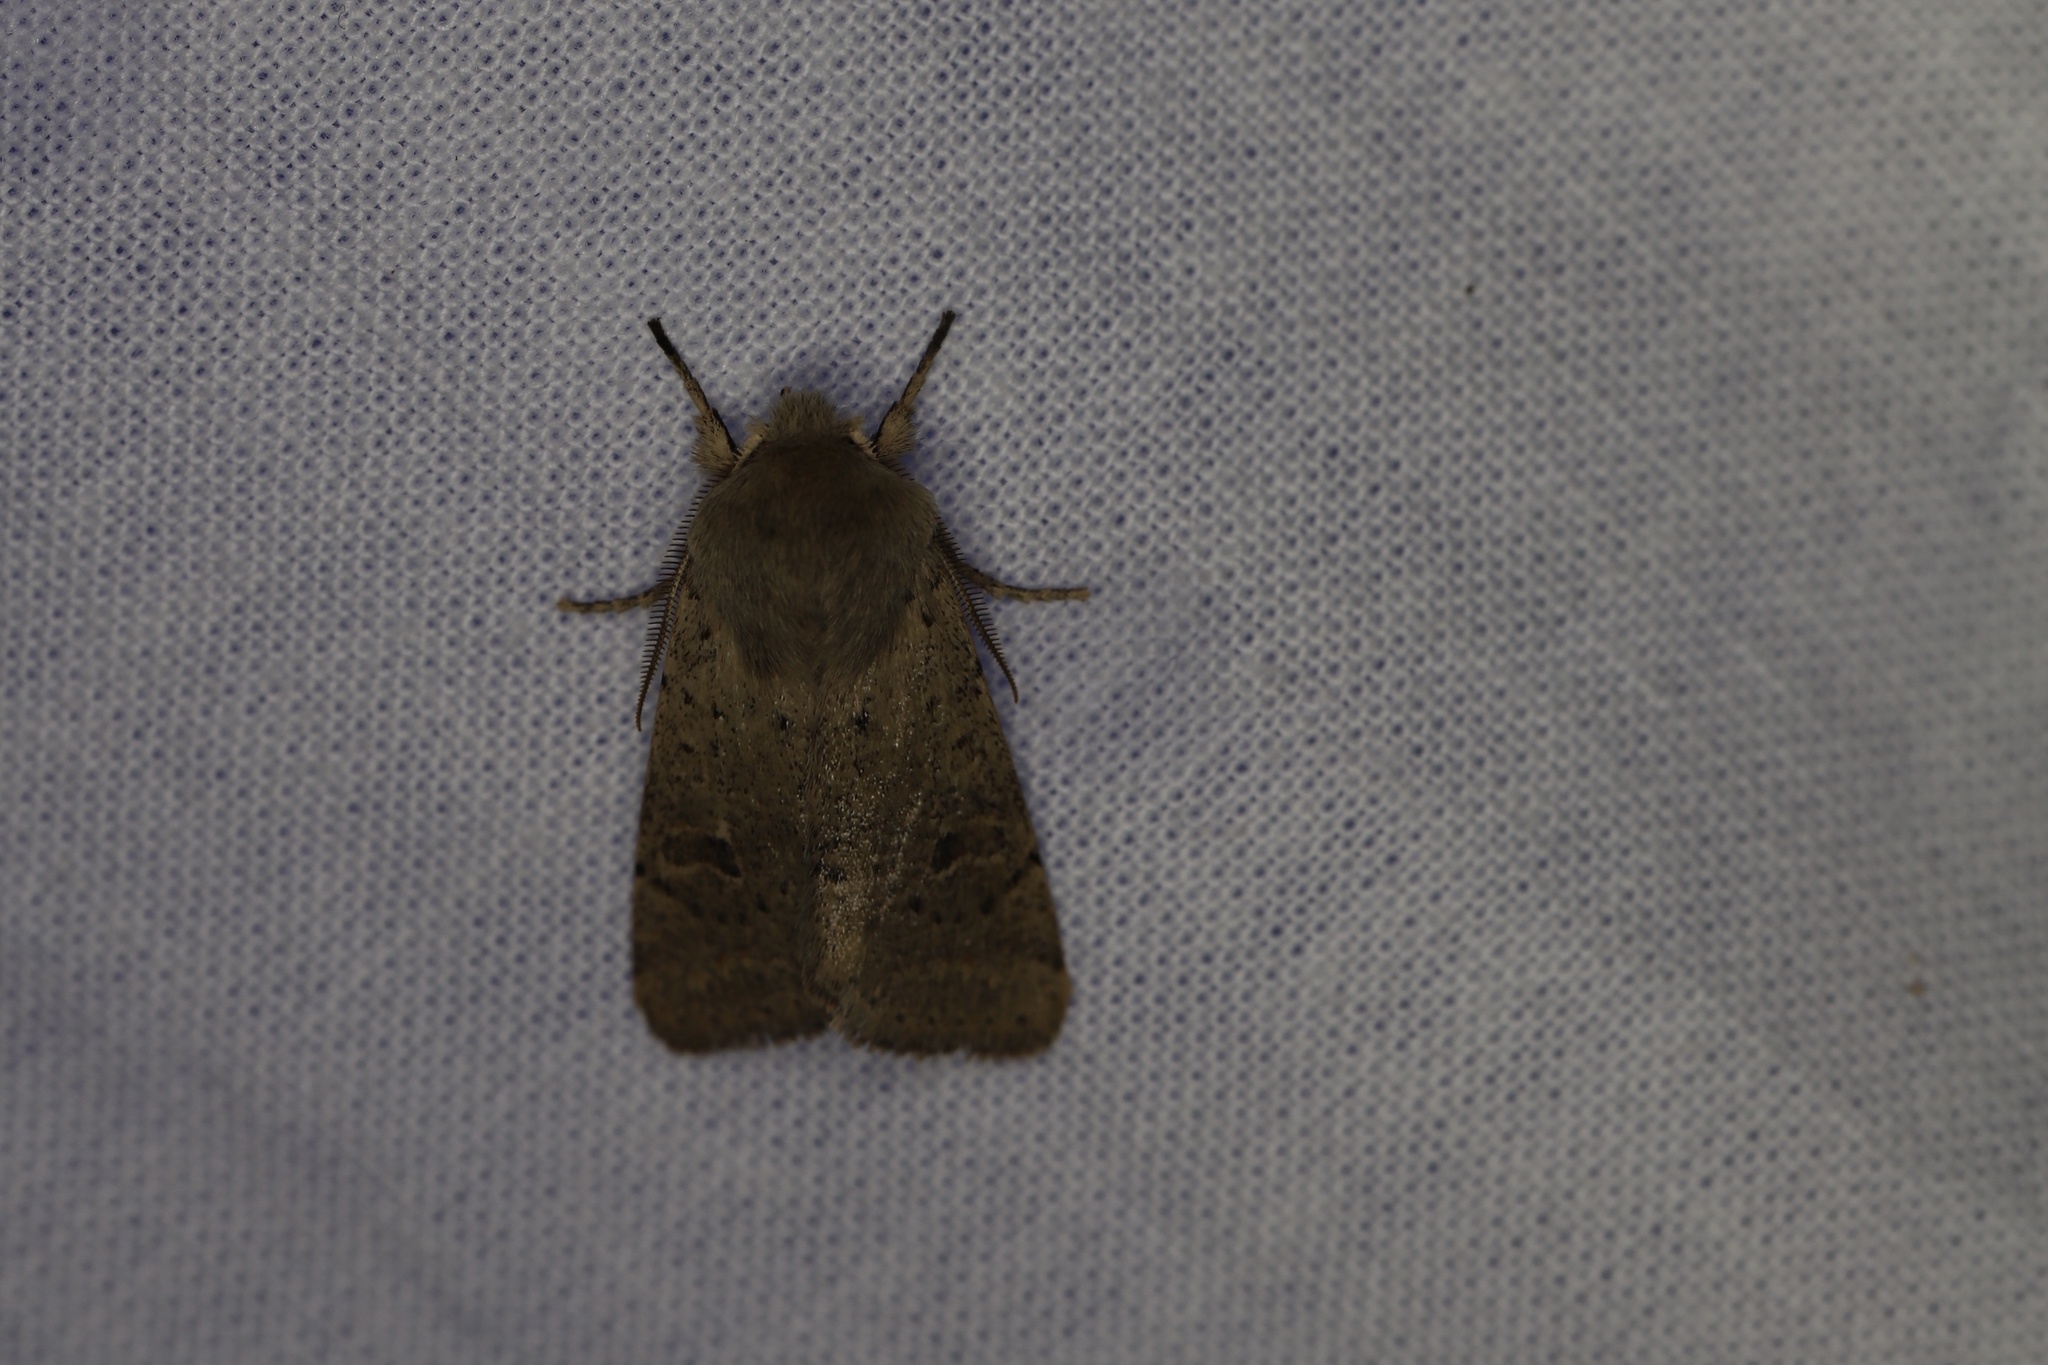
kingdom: Animalia
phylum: Arthropoda
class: Insecta
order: Lepidoptera
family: Noctuidae
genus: Orthosia
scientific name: Orthosia cruda
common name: Small quaker
